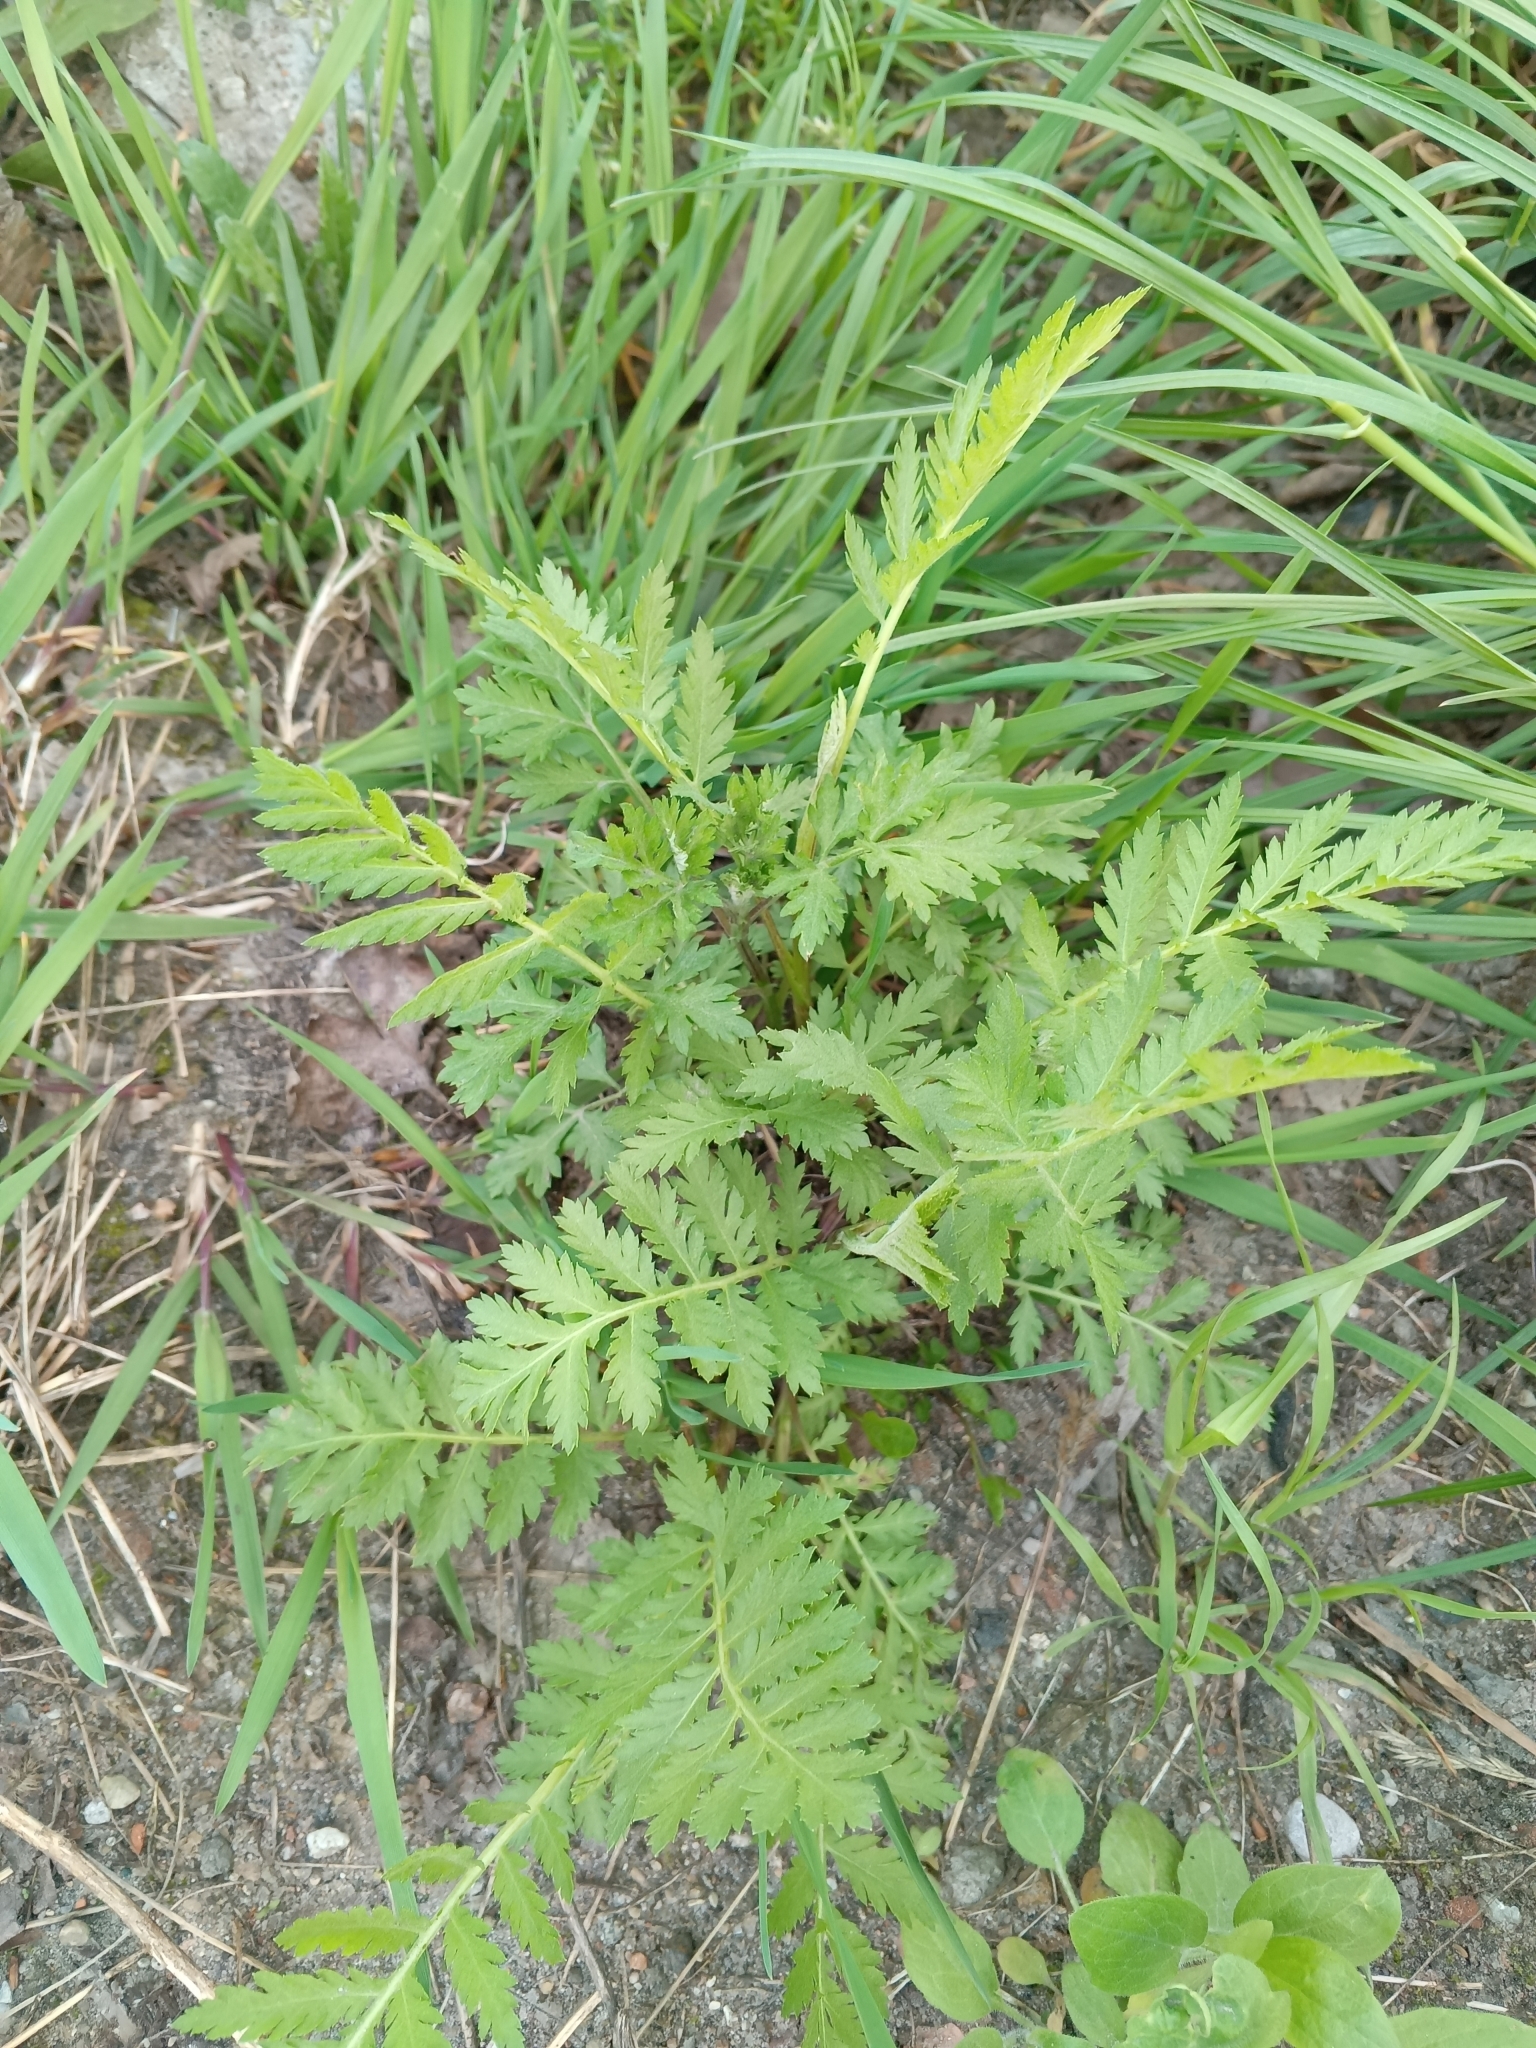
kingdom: Plantae
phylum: Tracheophyta
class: Magnoliopsida
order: Asterales
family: Asteraceae
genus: Tanacetum
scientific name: Tanacetum vulgare
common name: Common tansy
